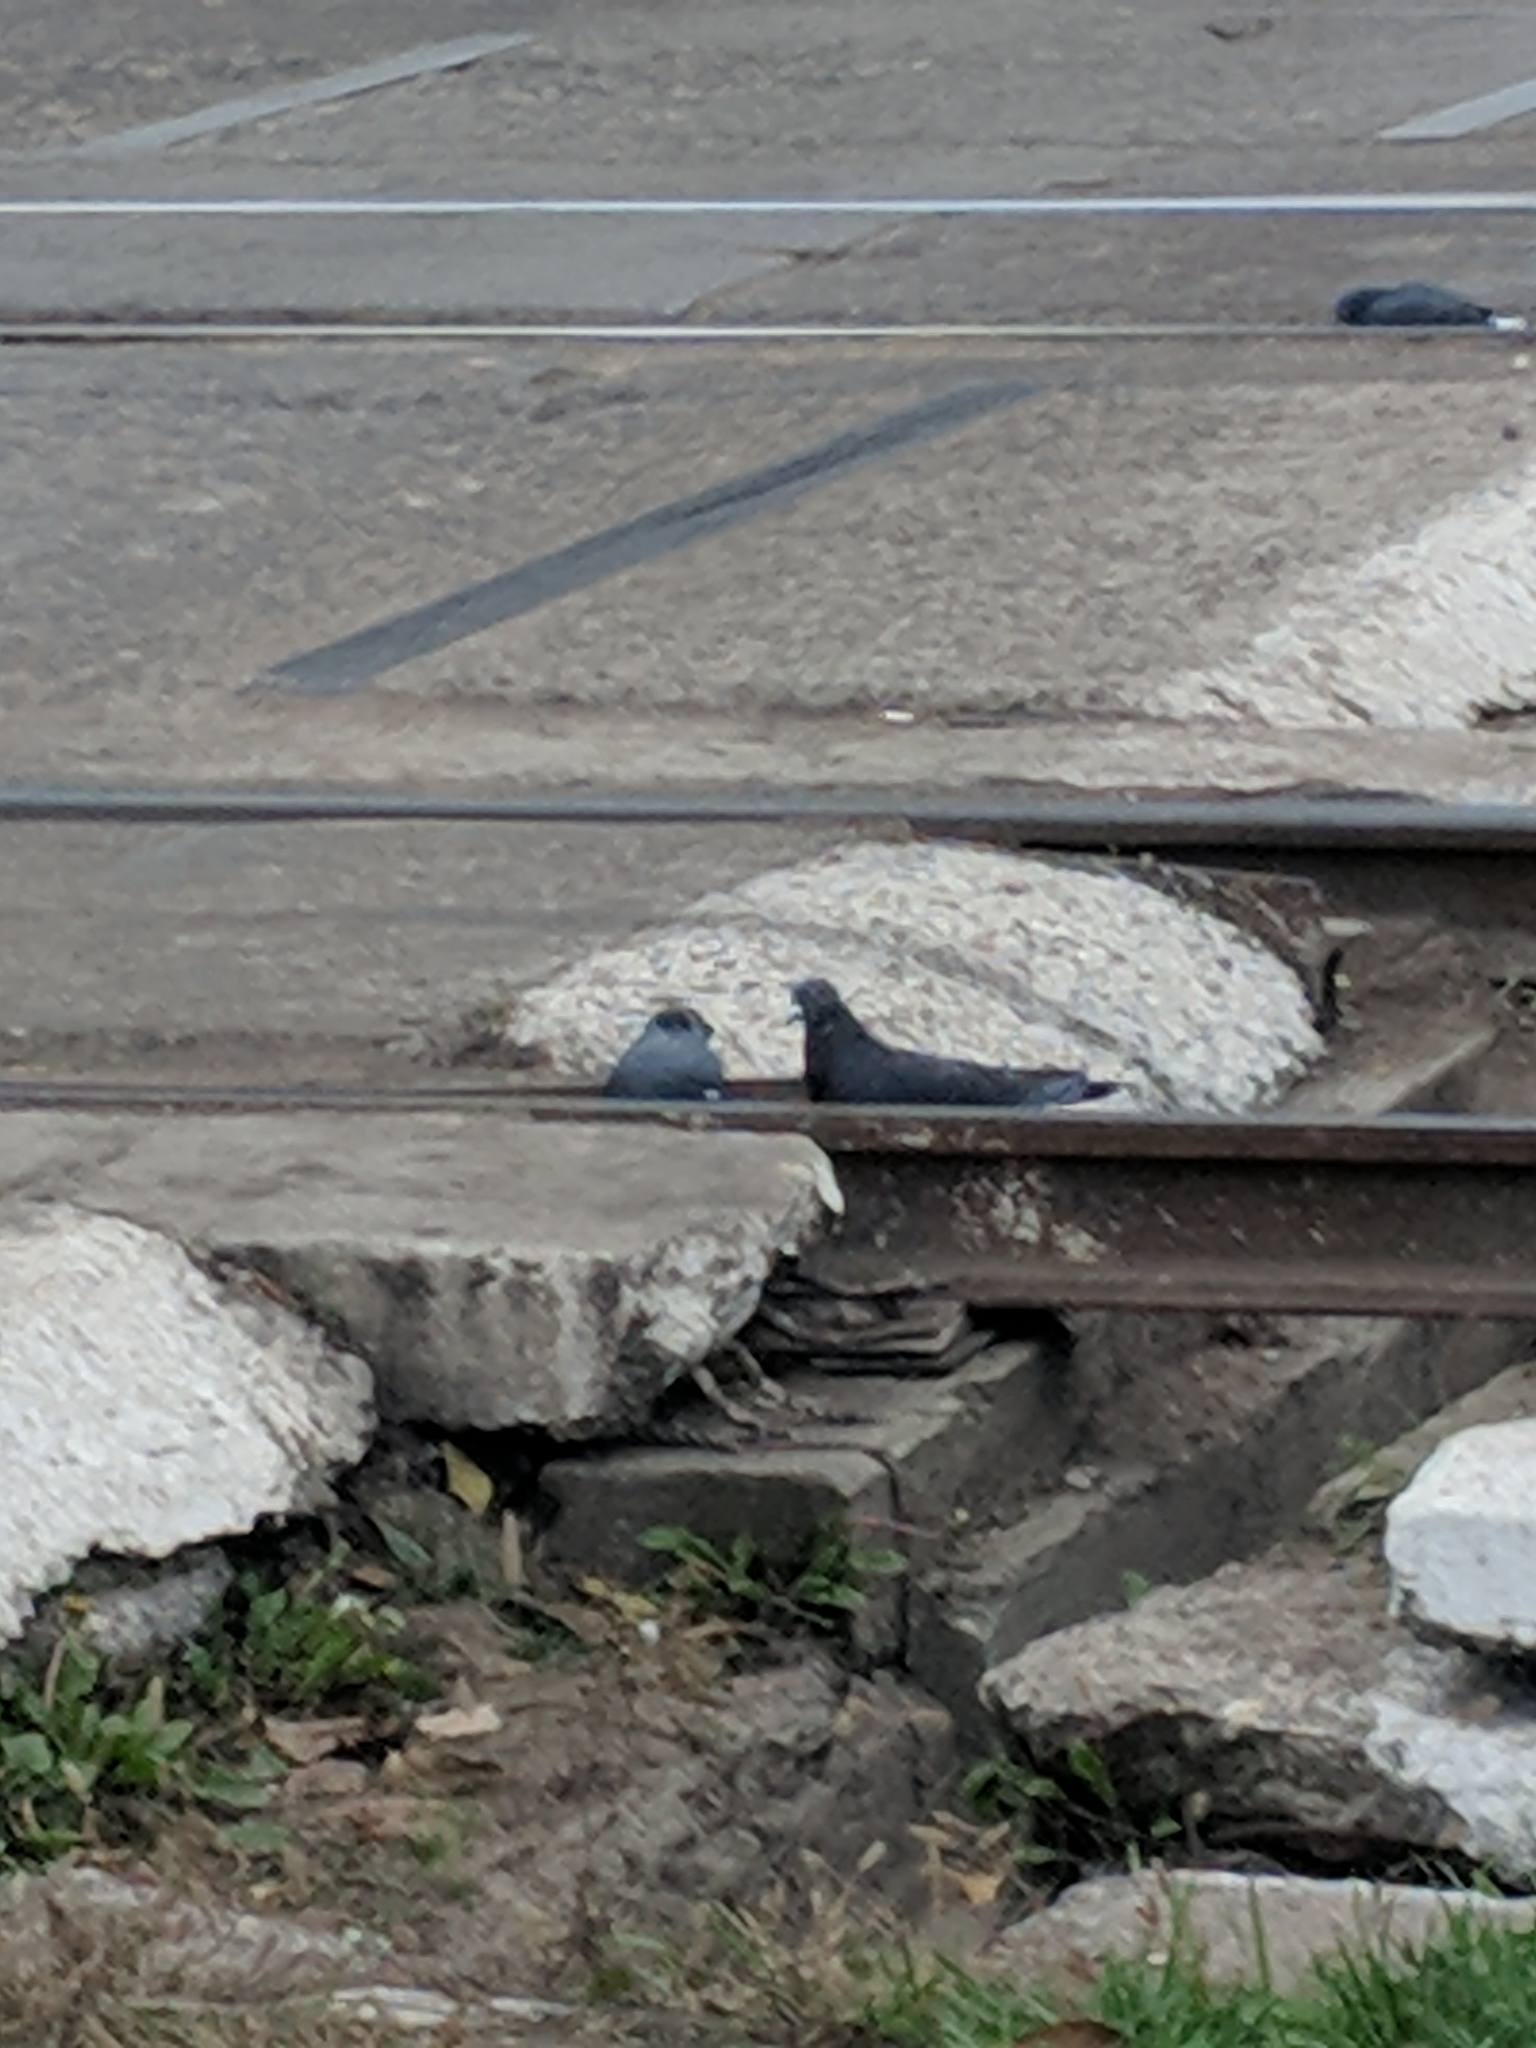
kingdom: Animalia
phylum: Chordata
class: Aves
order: Columbiformes
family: Columbidae
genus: Columba
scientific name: Columba livia
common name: Rock pigeon
